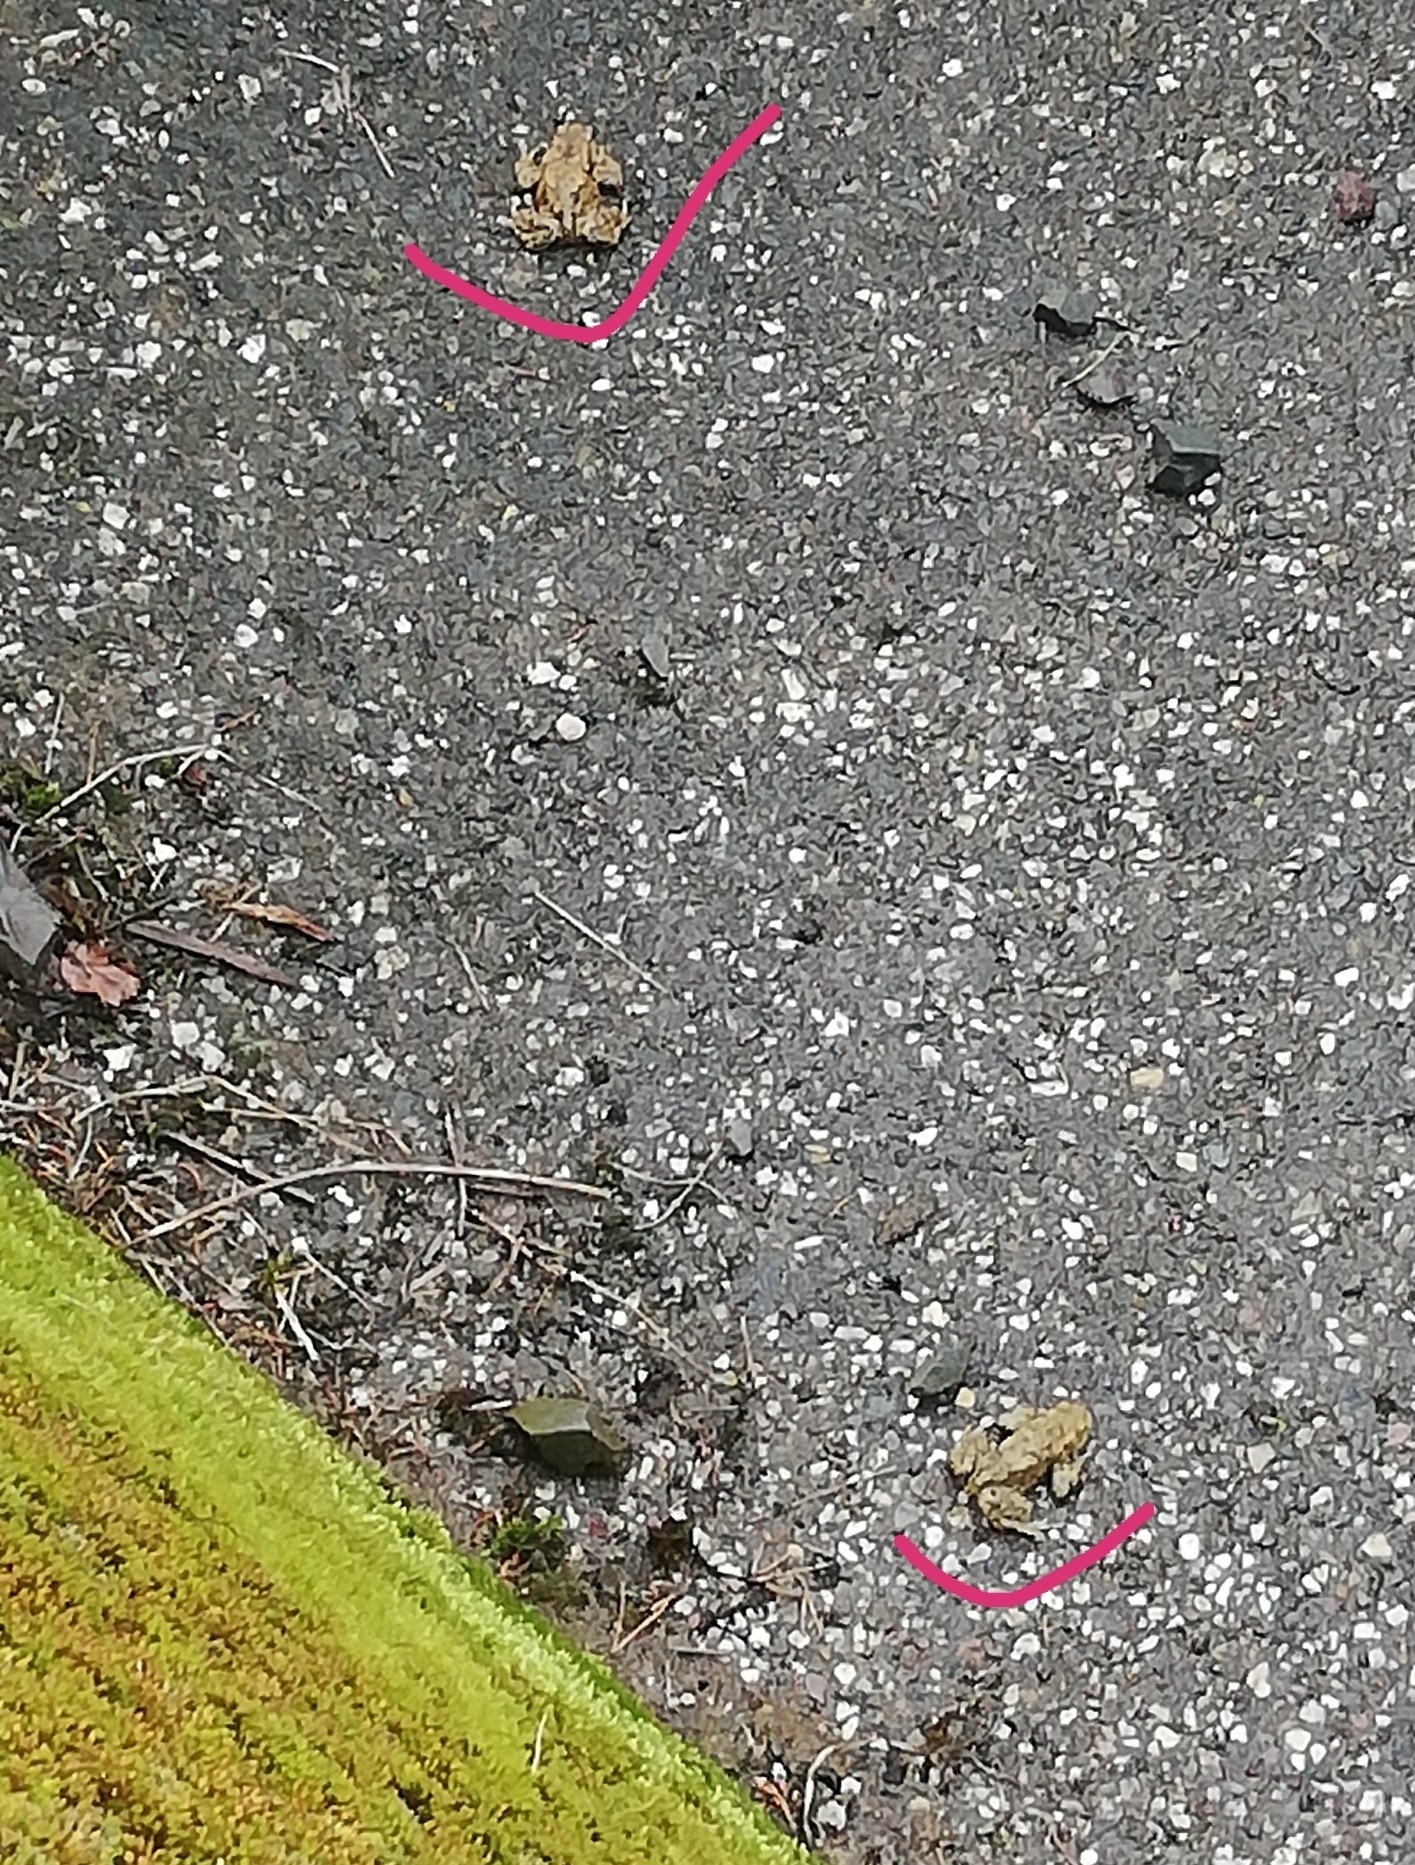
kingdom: Animalia
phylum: Chordata
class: Amphibia
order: Anura
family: Bufonidae
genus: Bufo
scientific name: Bufo bufo
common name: Common toad
